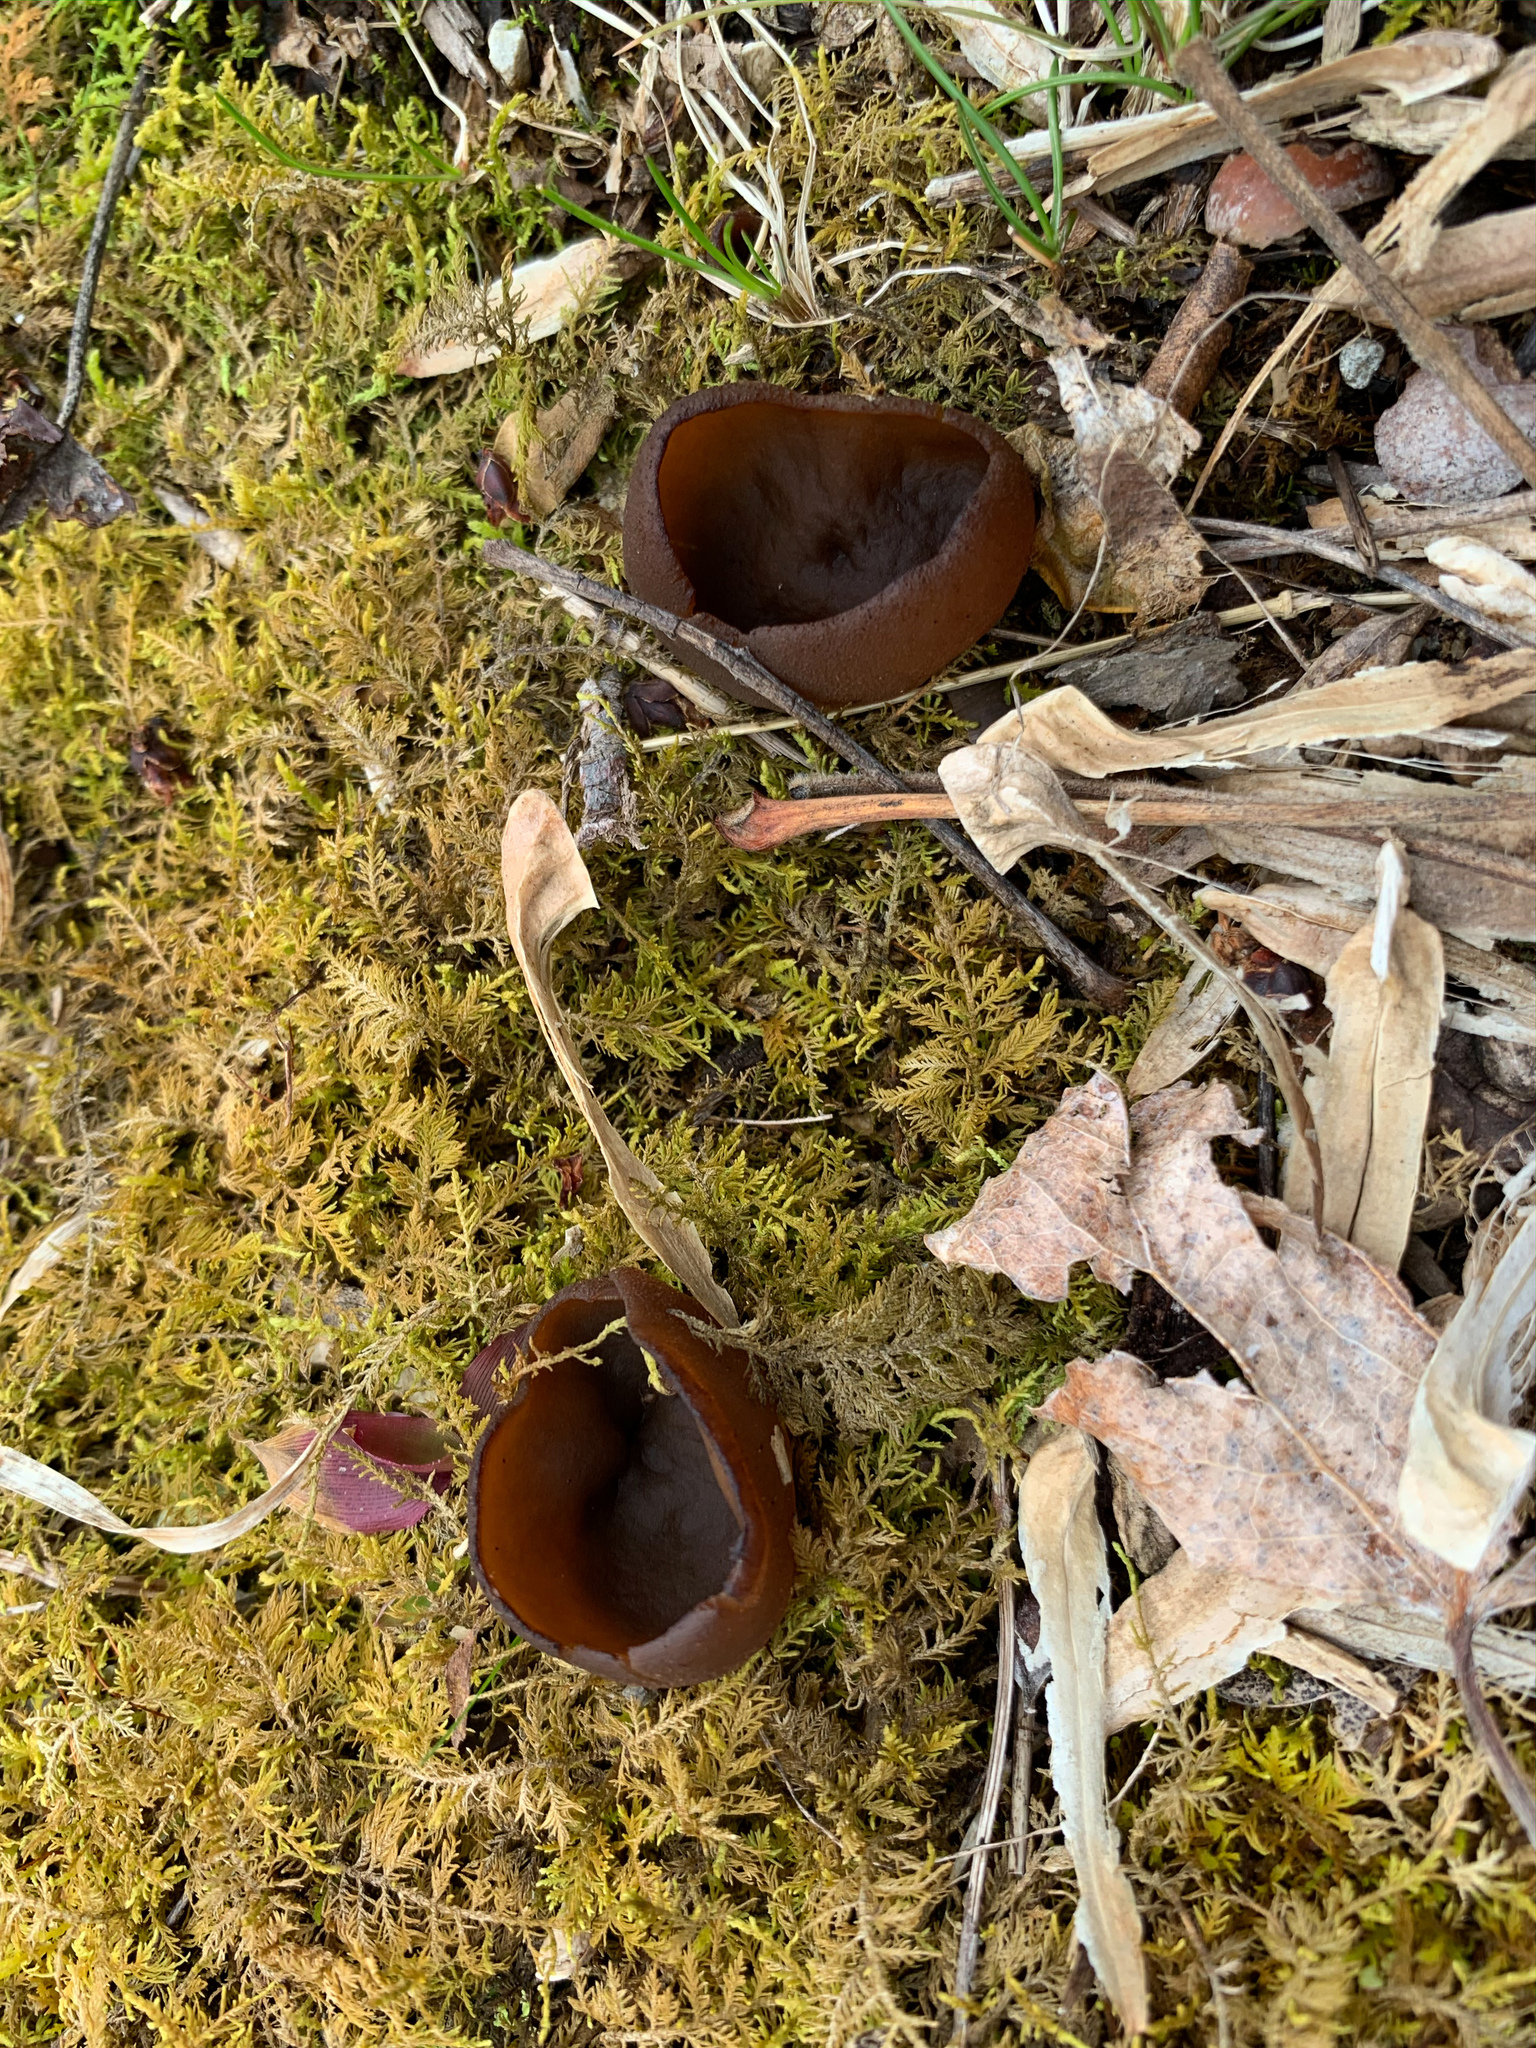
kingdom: Fungi
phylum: Ascomycota
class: Pezizomycetes
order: Pezizales
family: Pezizaceae
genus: Phylloscypha
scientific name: Phylloscypha phyllogena
